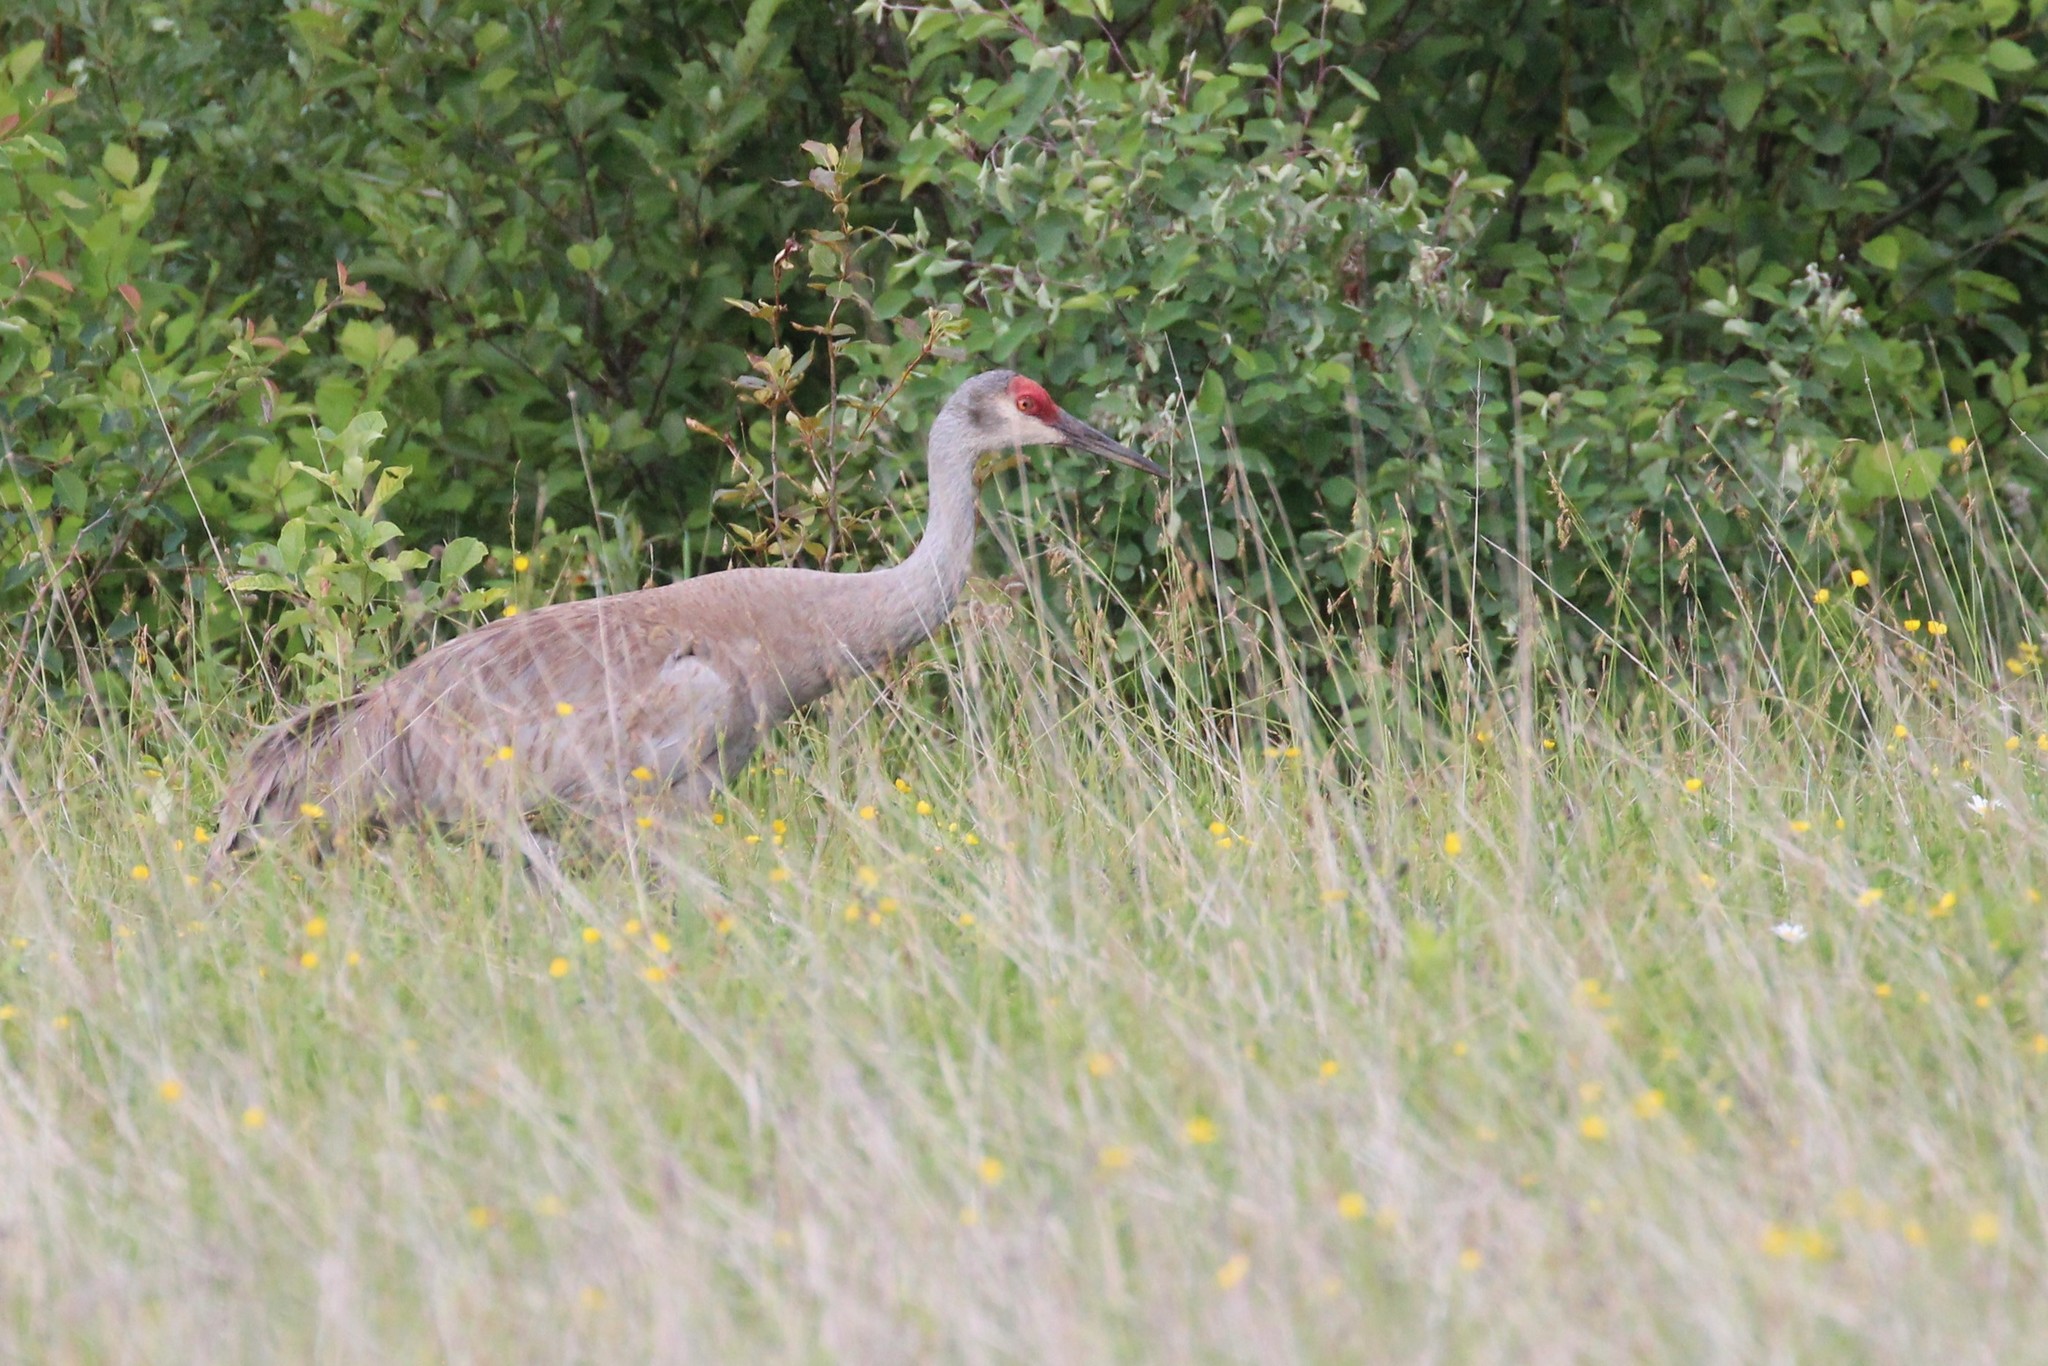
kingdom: Animalia
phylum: Chordata
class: Aves
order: Gruiformes
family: Gruidae
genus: Grus
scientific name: Grus canadensis
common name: Sandhill crane
